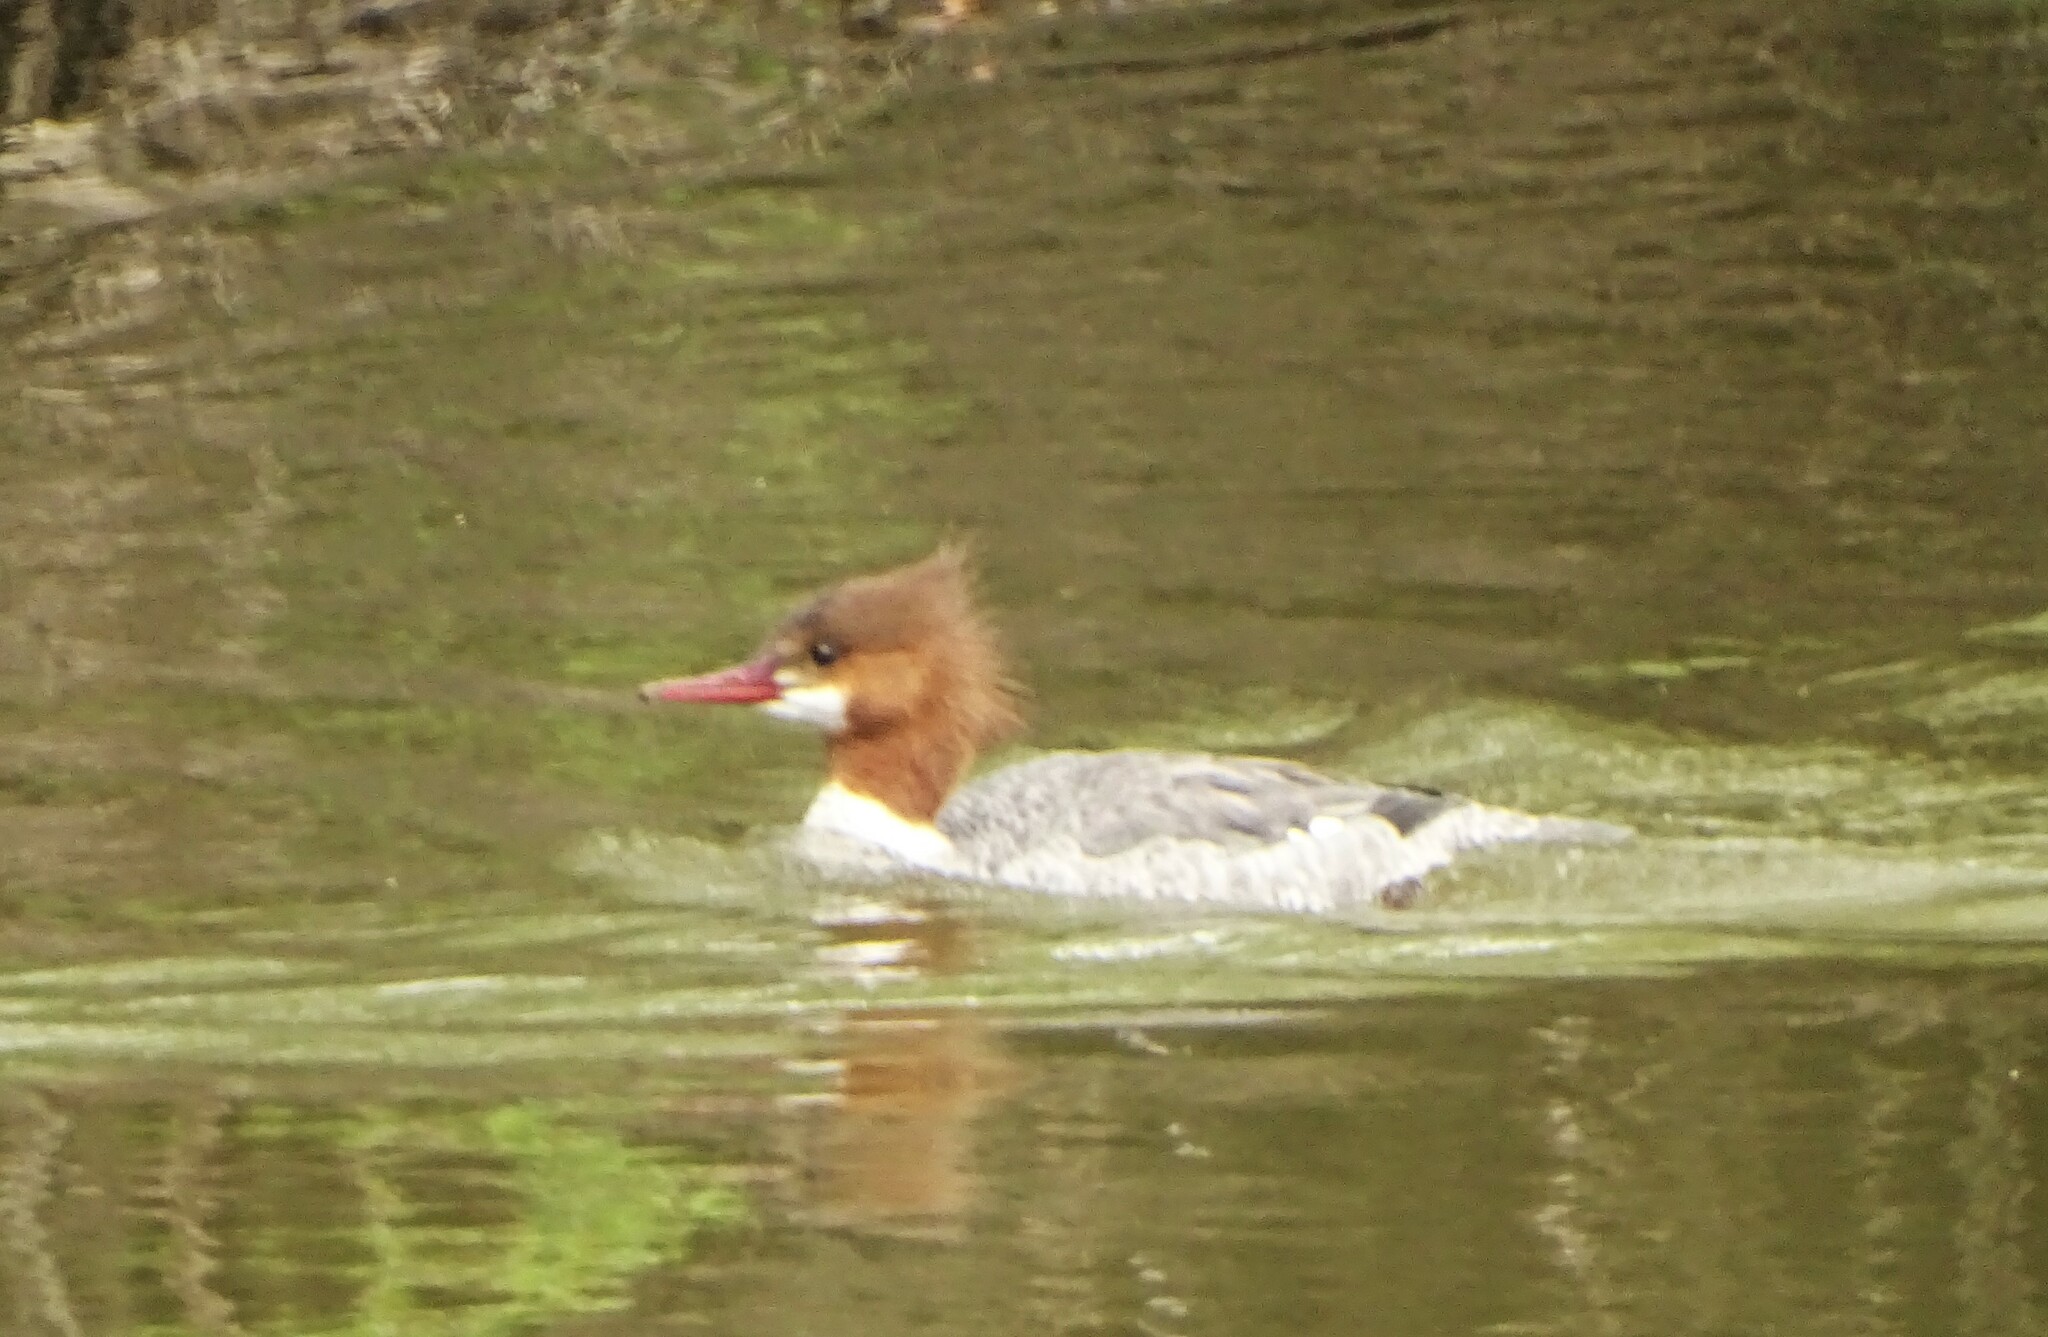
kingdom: Animalia
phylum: Chordata
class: Aves
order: Anseriformes
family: Anatidae
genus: Mergus
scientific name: Mergus merganser
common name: Common merganser
